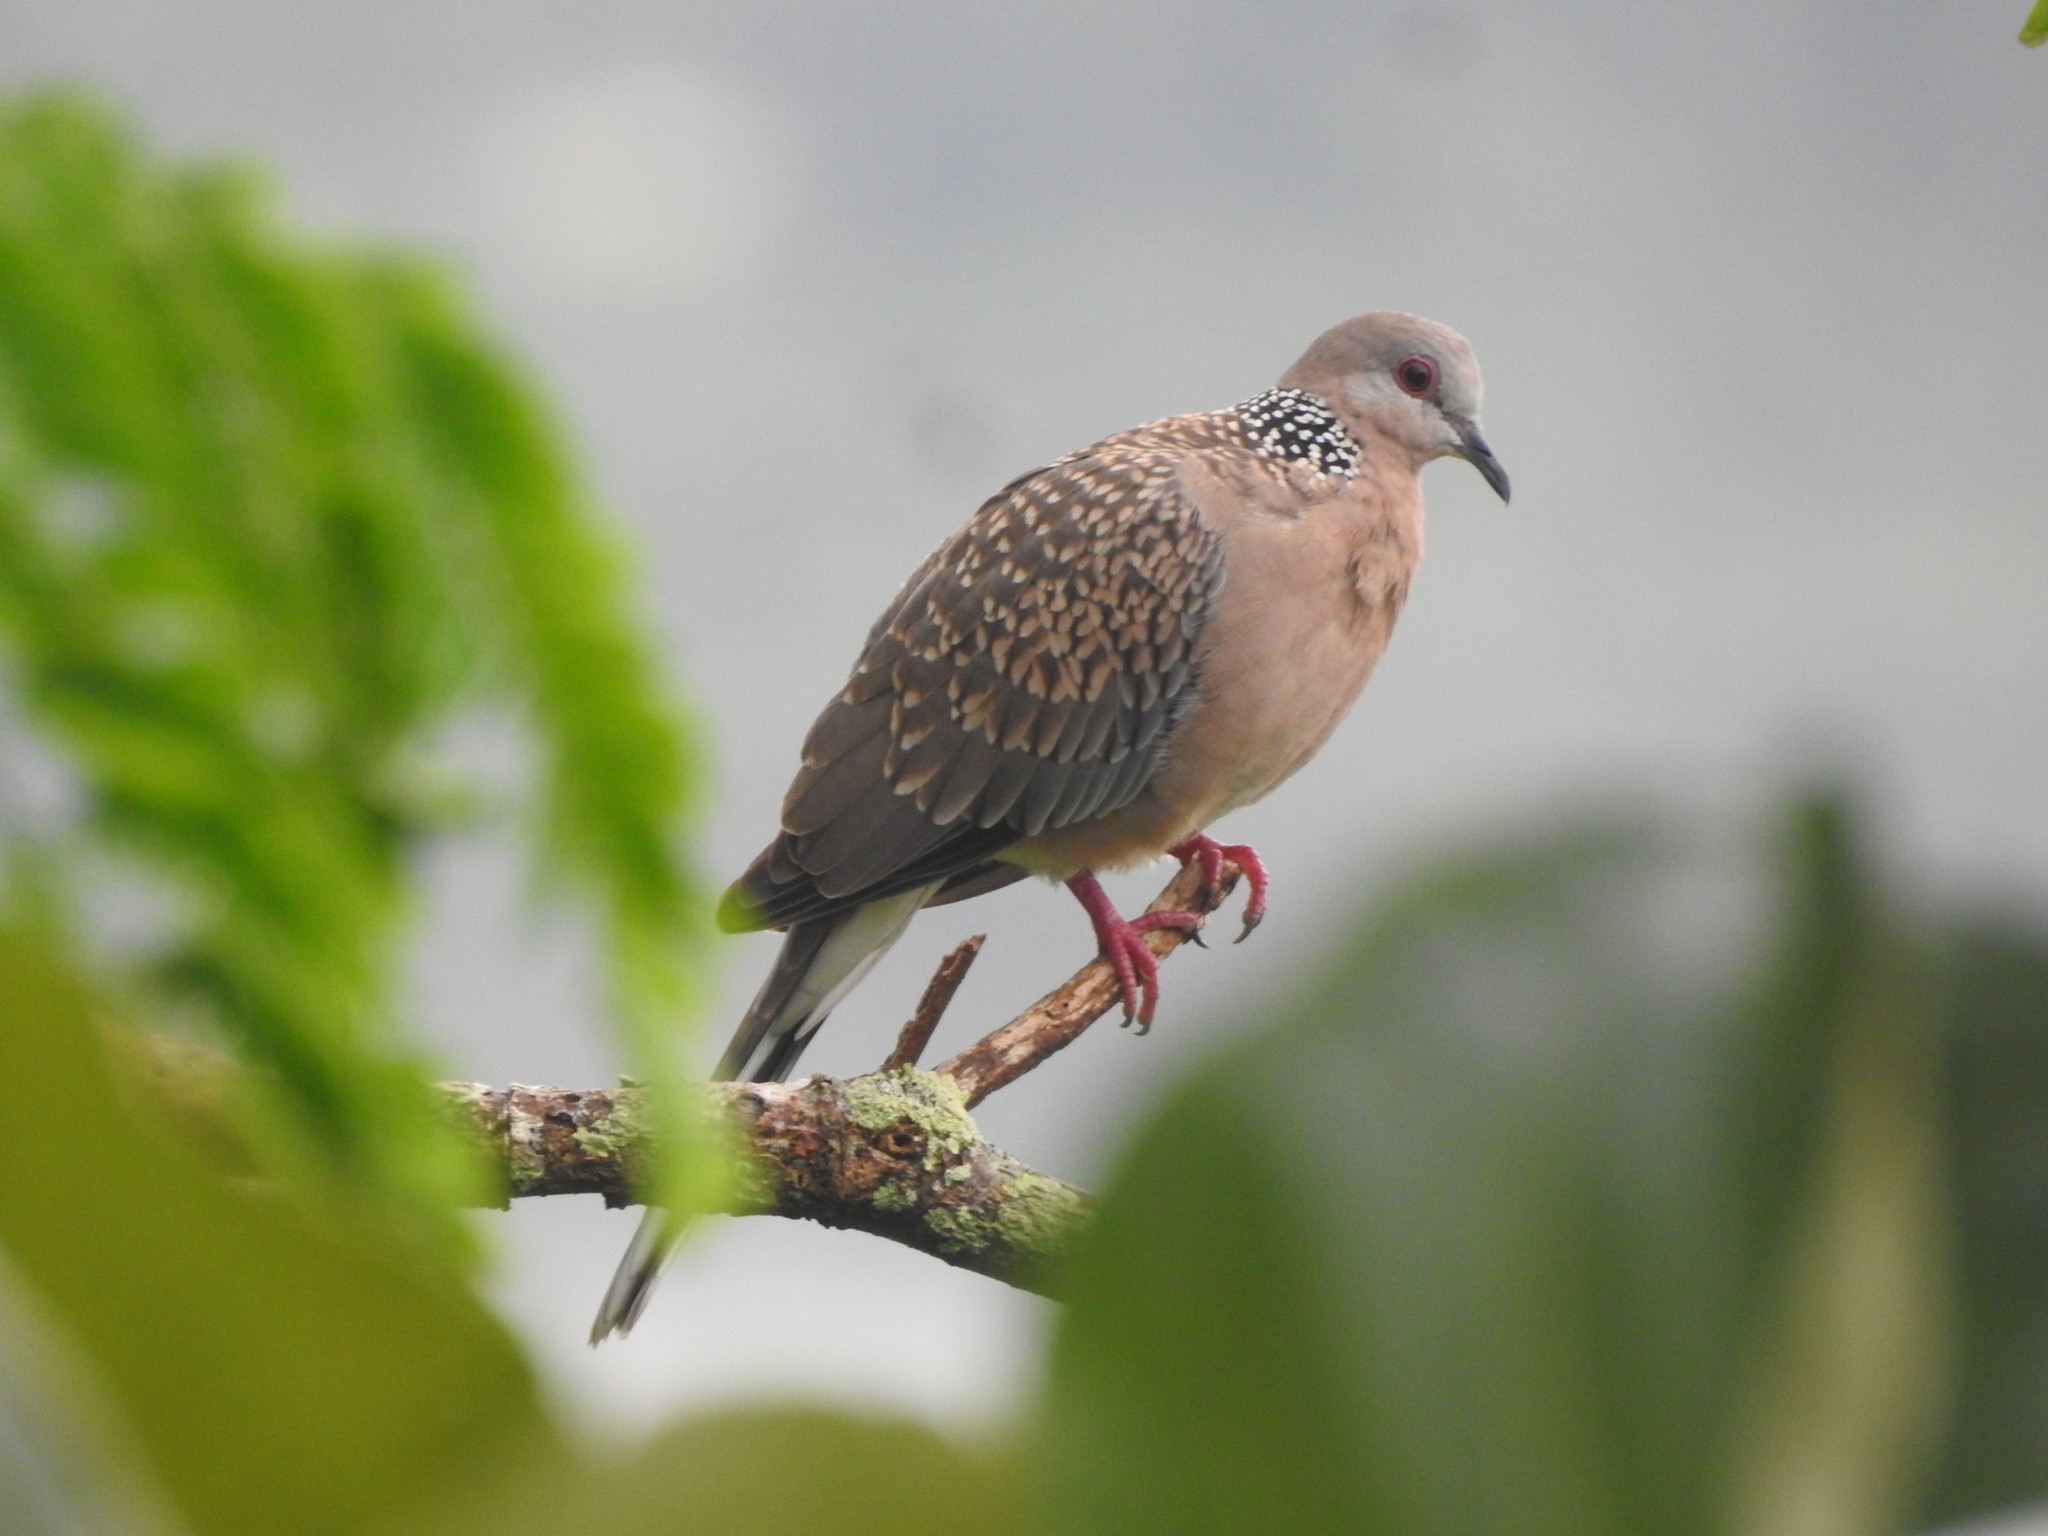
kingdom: Animalia
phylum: Chordata
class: Aves
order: Columbiformes
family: Columbidae
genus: Spilopelia
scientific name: Spilopelia chinensis
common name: Spotted dove
